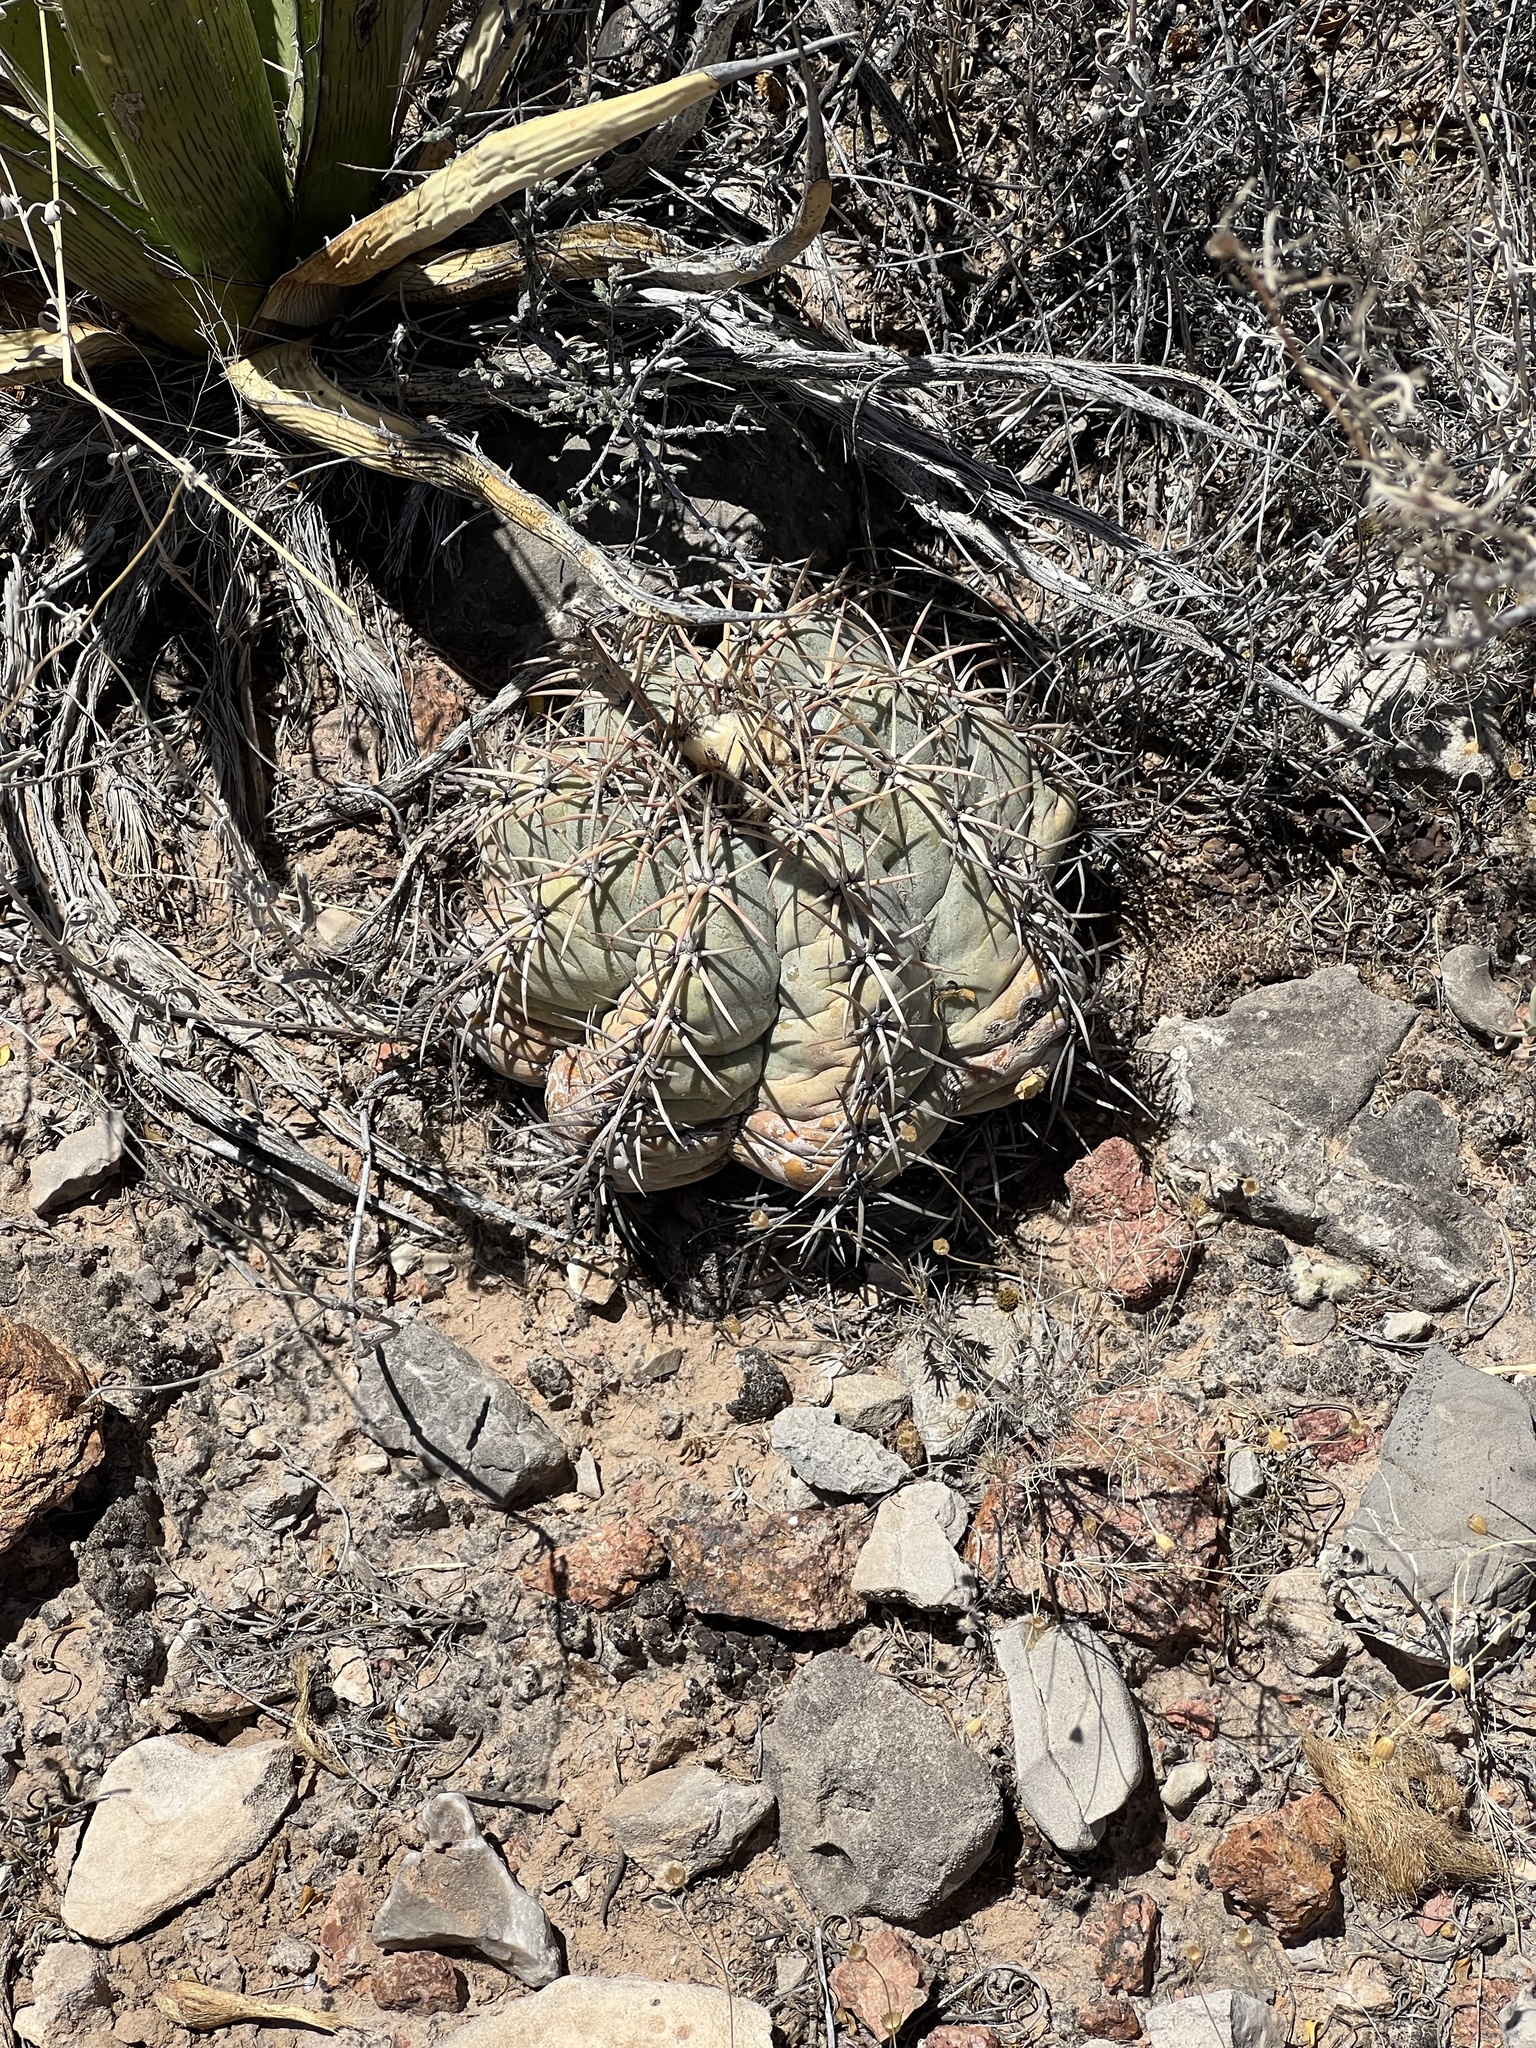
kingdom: Plantae
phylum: Tracheophyta
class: Magnoliopsida
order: Caryophyllales
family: Cactaceae
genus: Echinocactus
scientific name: Echinocactus horizonthalonius
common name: Devilshead
